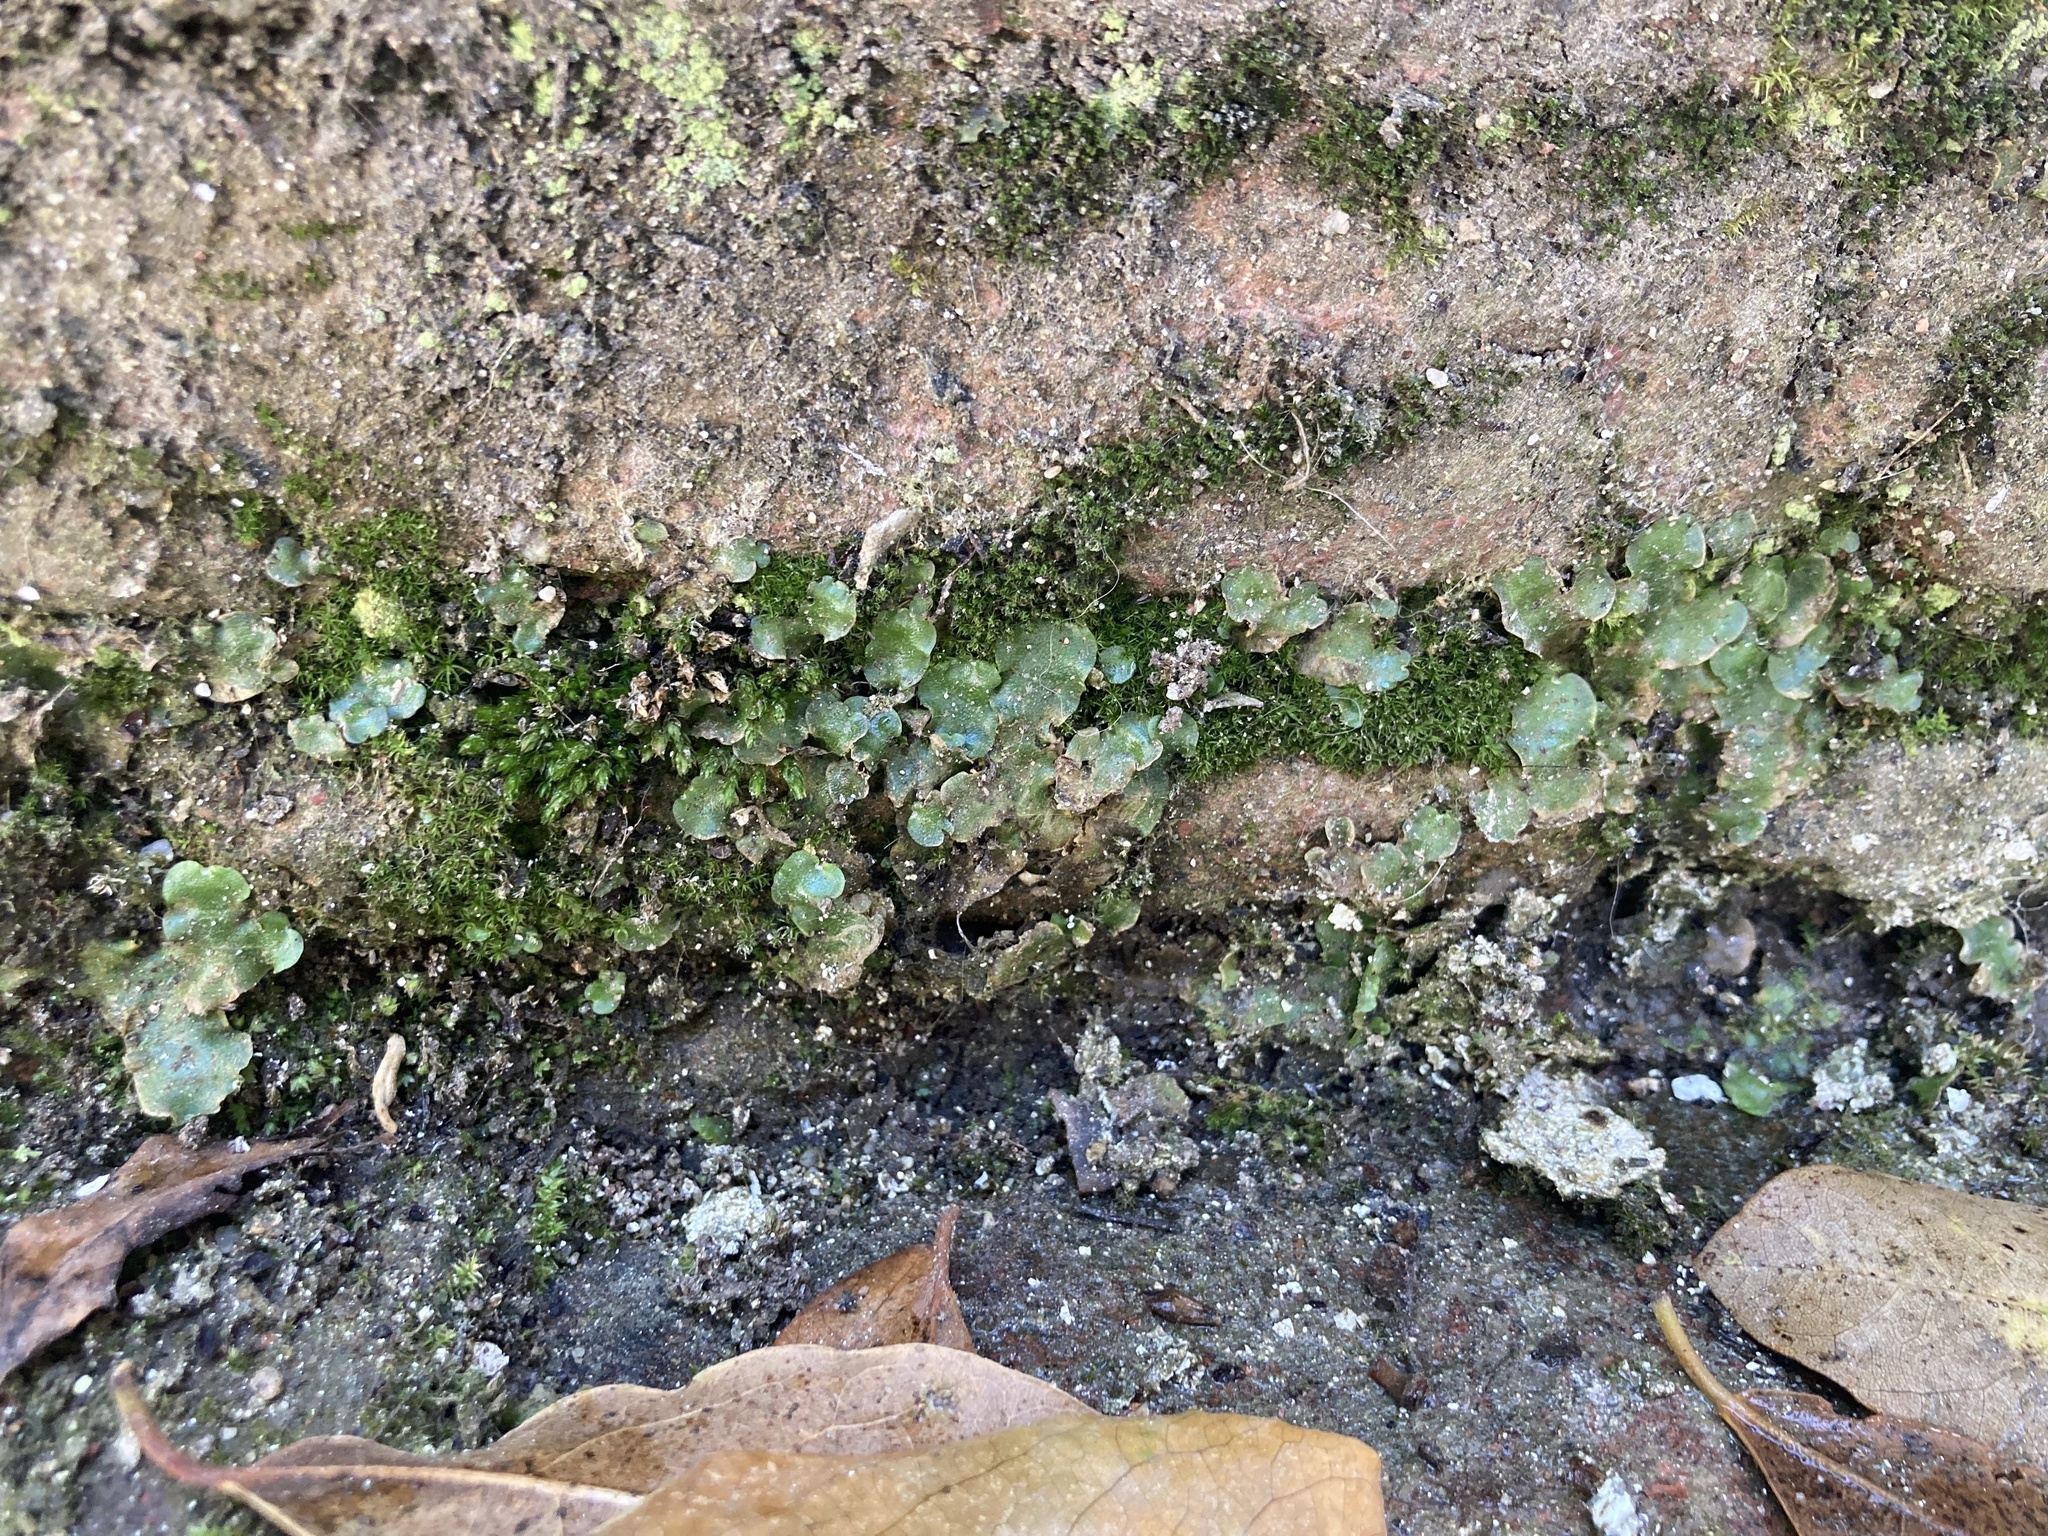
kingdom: Plantae
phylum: Marchantiophyta
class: Marchantiopsida
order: Lunulariales
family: Lunulariaceae
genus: Lunularia
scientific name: Lunularia cruciata
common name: Crescent-cup liverwort
